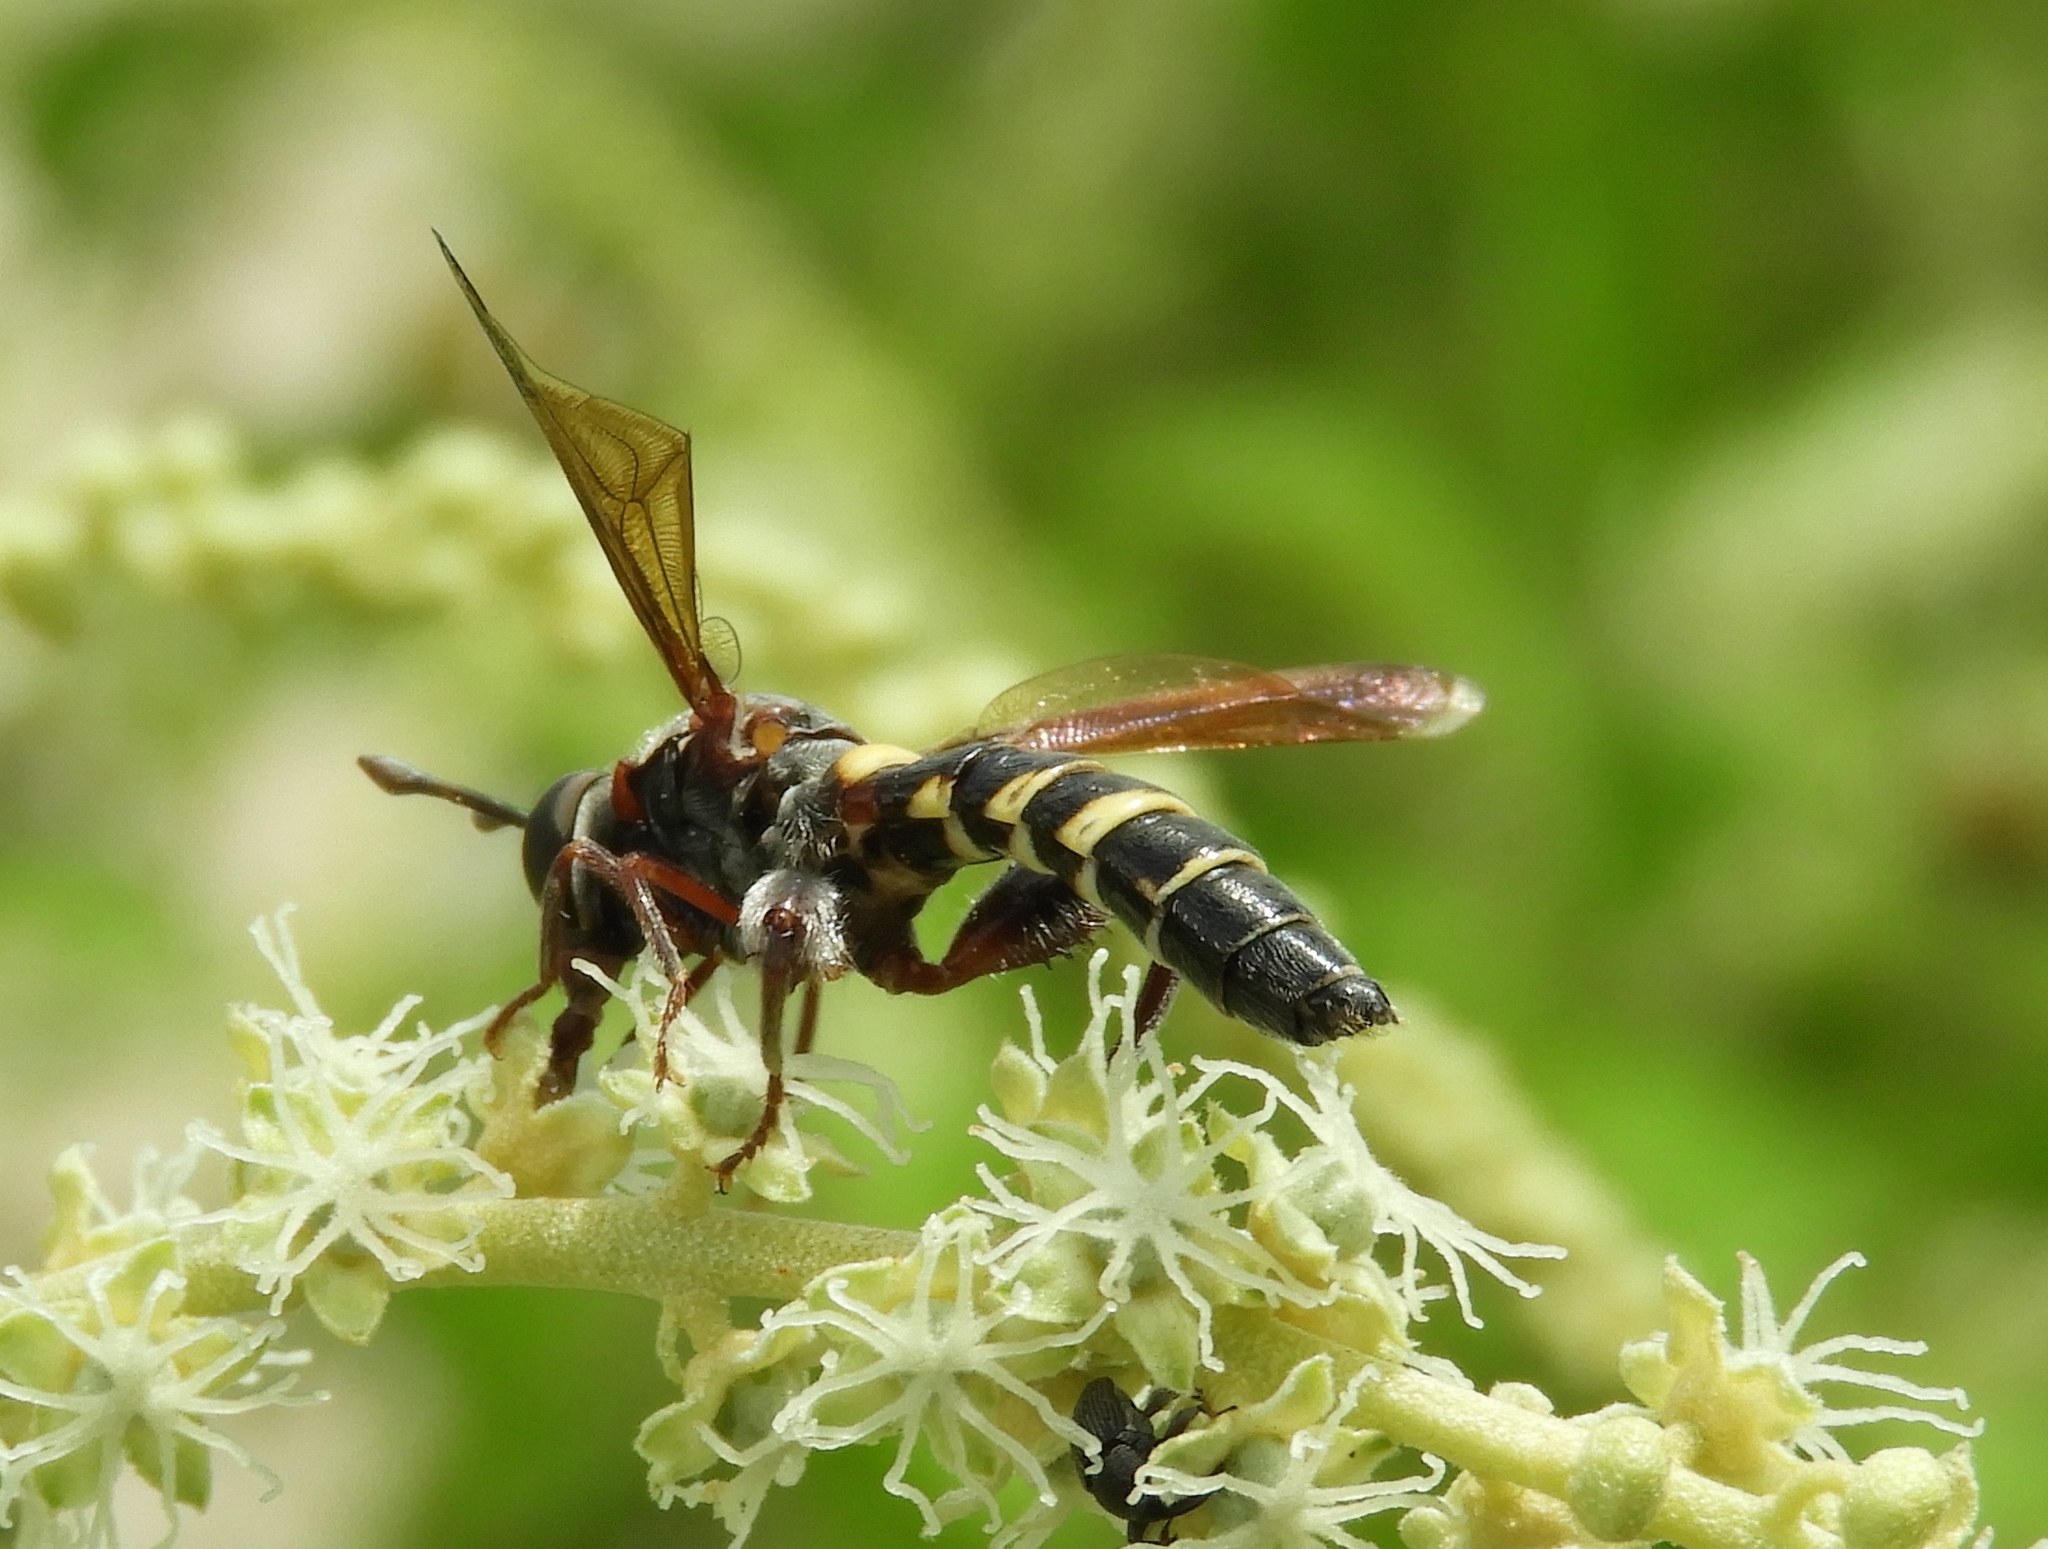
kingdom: Animalia
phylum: Arthropoda
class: Insecta
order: Diptera
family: Mydidae
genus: Mydas
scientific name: Mydas hardyi
